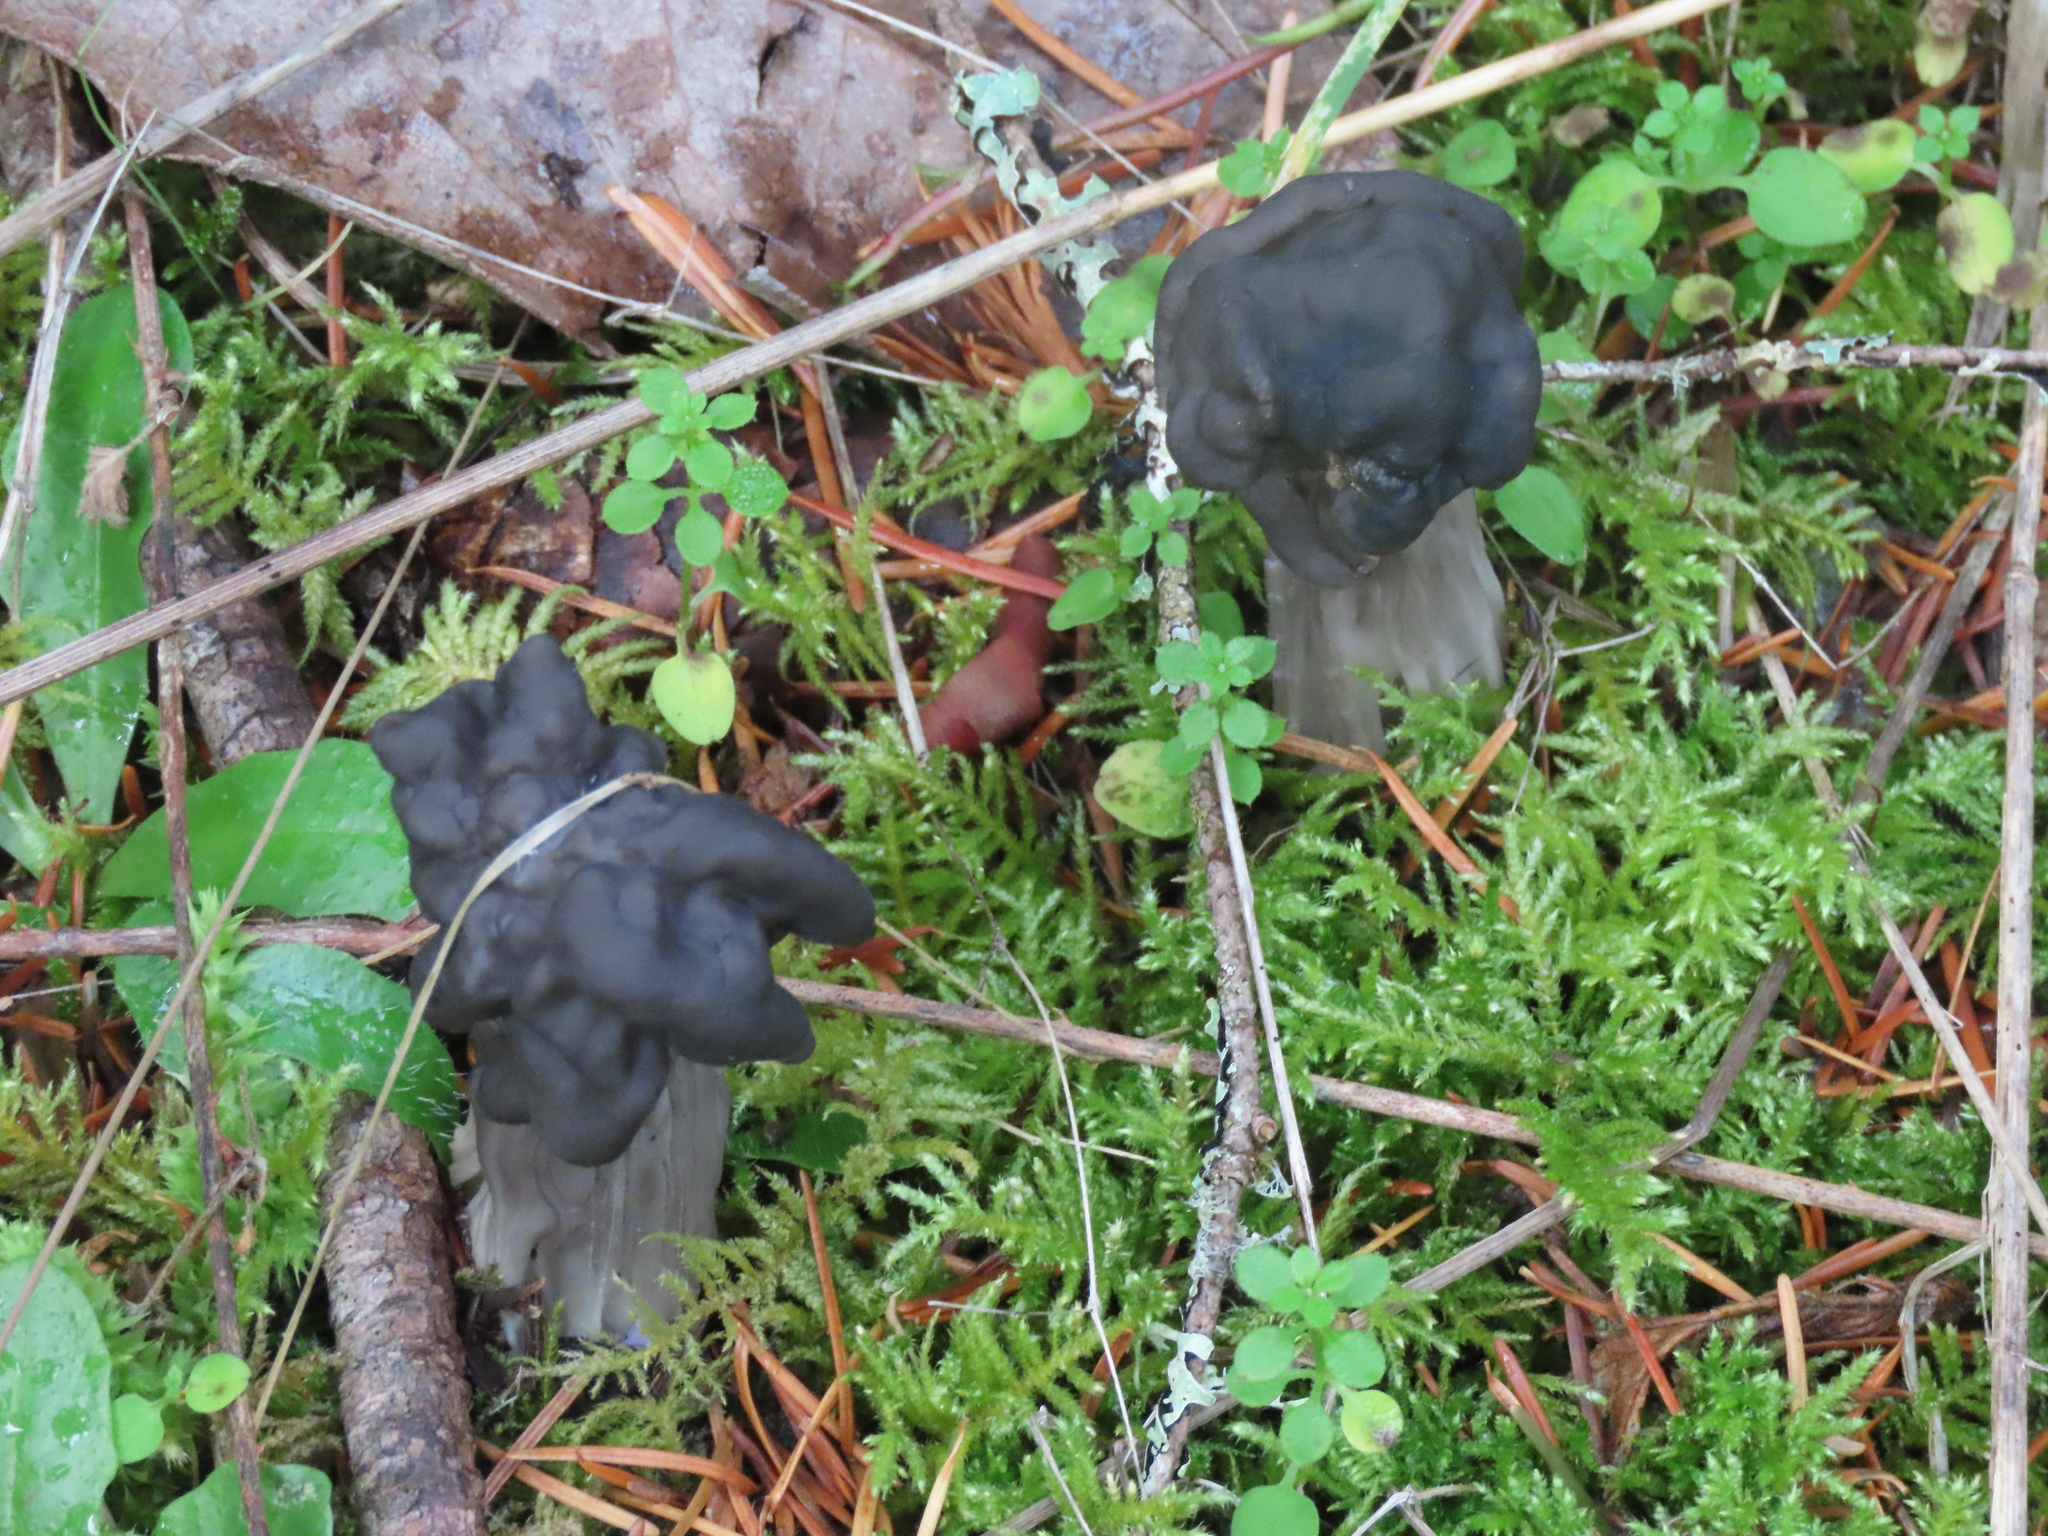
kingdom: Fungi
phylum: Ascomycota
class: Pezizomycetes
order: Pezizales
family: Helvellaceae
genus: Helvella
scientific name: Helvella vespertina
